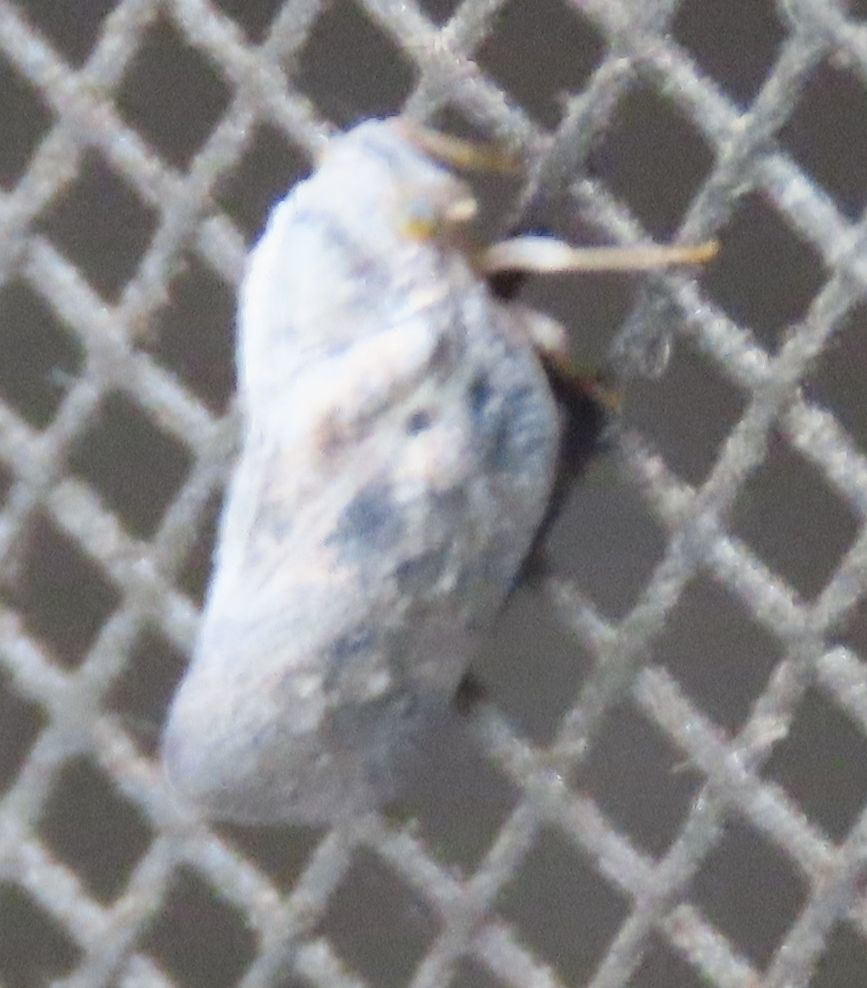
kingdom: Animalia
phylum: Arthropoda
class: Insecta
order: Hemiptera
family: Flatidae
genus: Metcalfa
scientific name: Metcalfa pruinosa
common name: Citrus flatid planthopper
